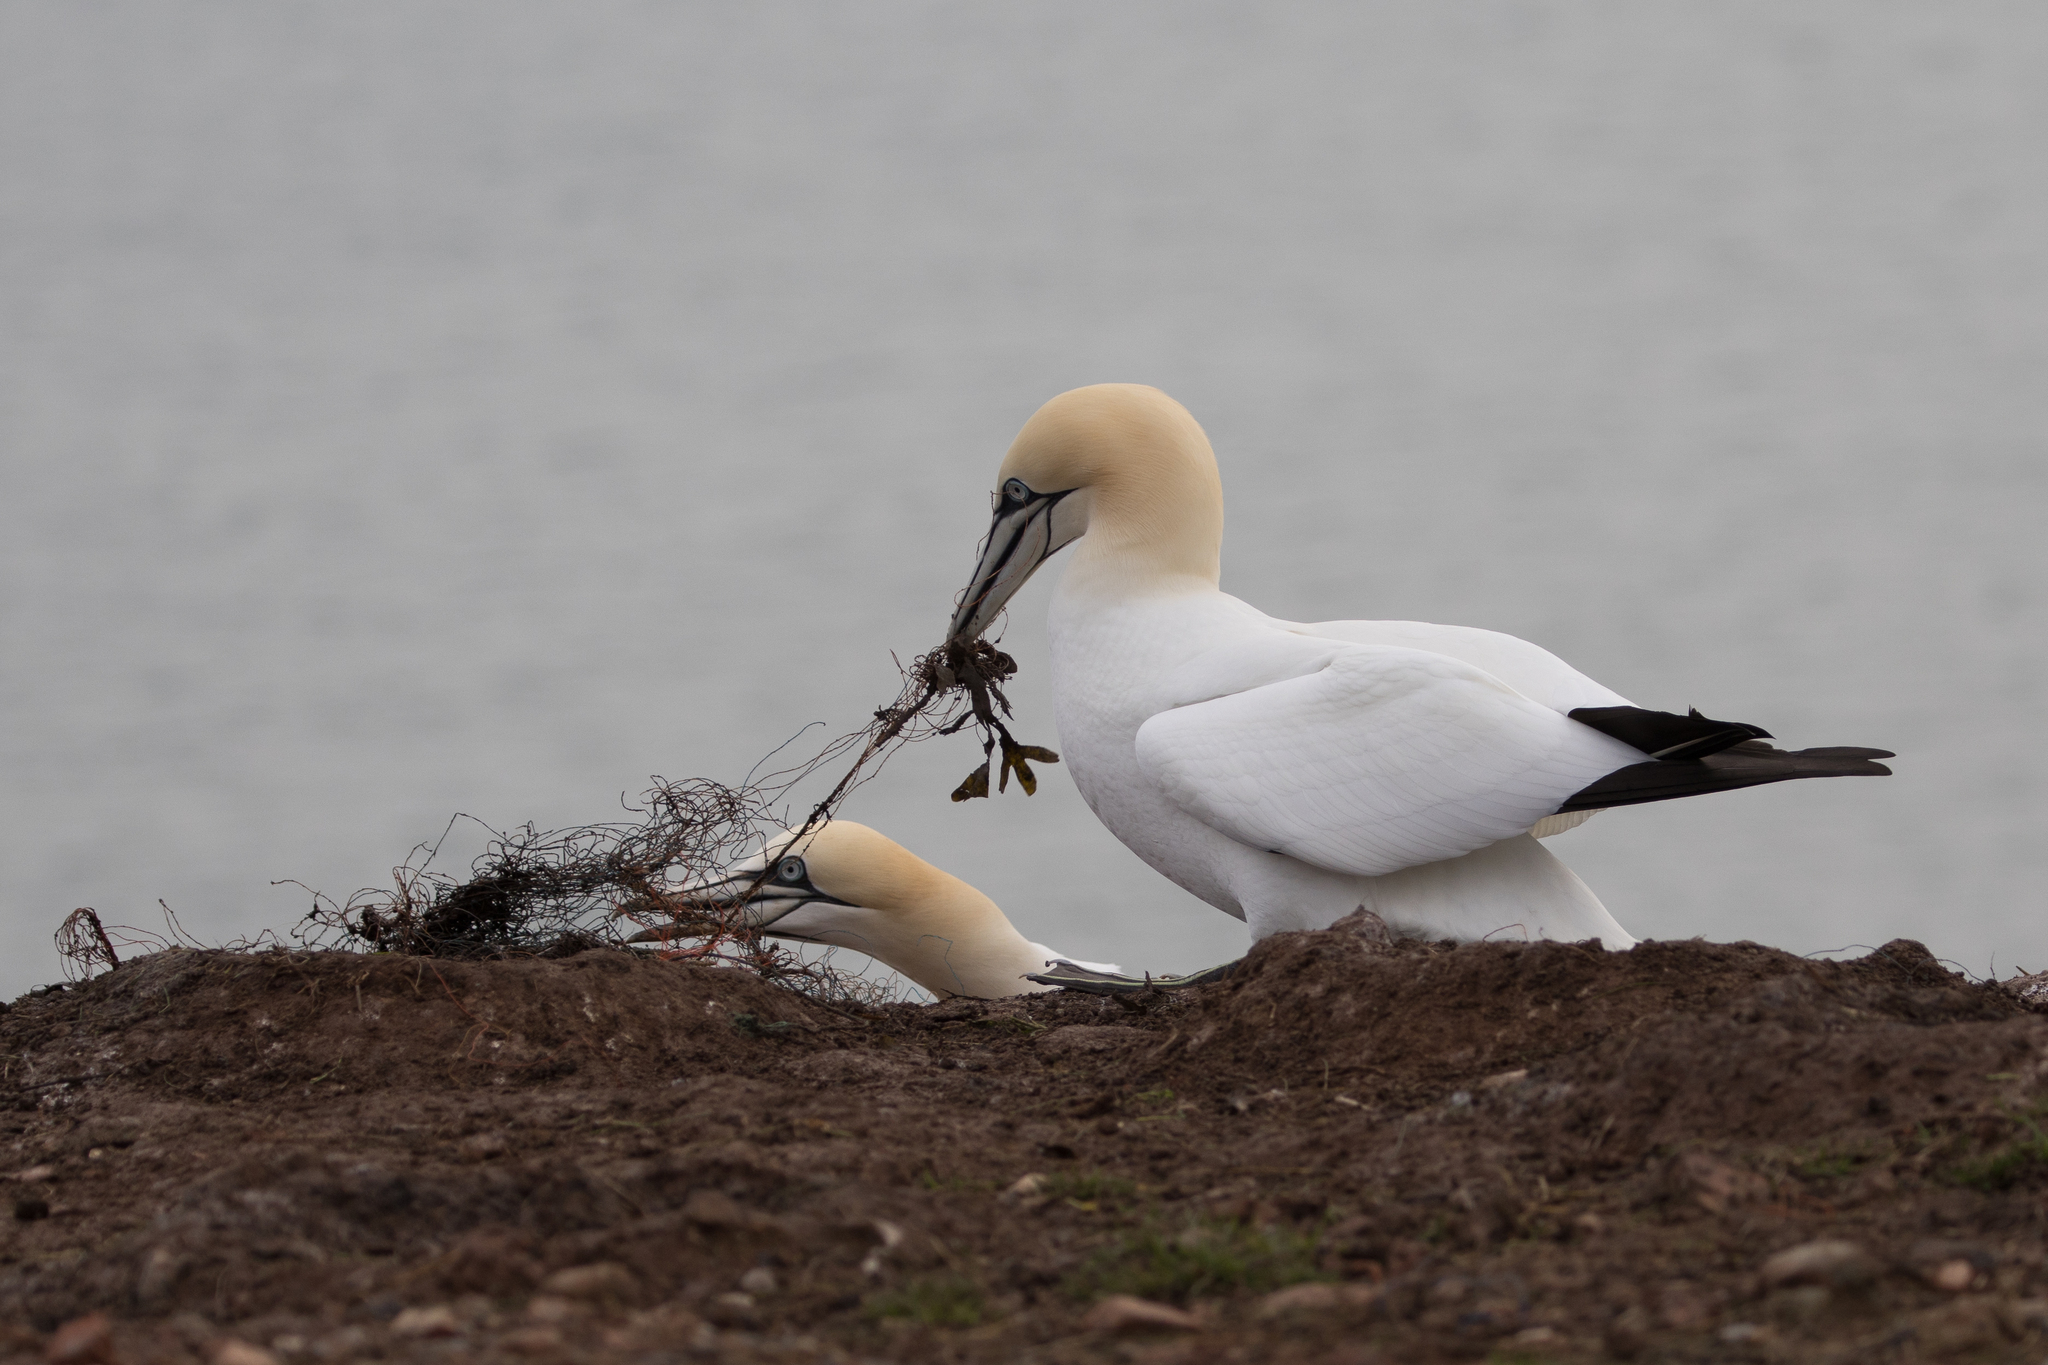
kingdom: Animalia
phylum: Chordata
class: Aves
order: Suliformes
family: Sulidae
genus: Morus
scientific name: Morus bassanus
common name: Northern gannet
